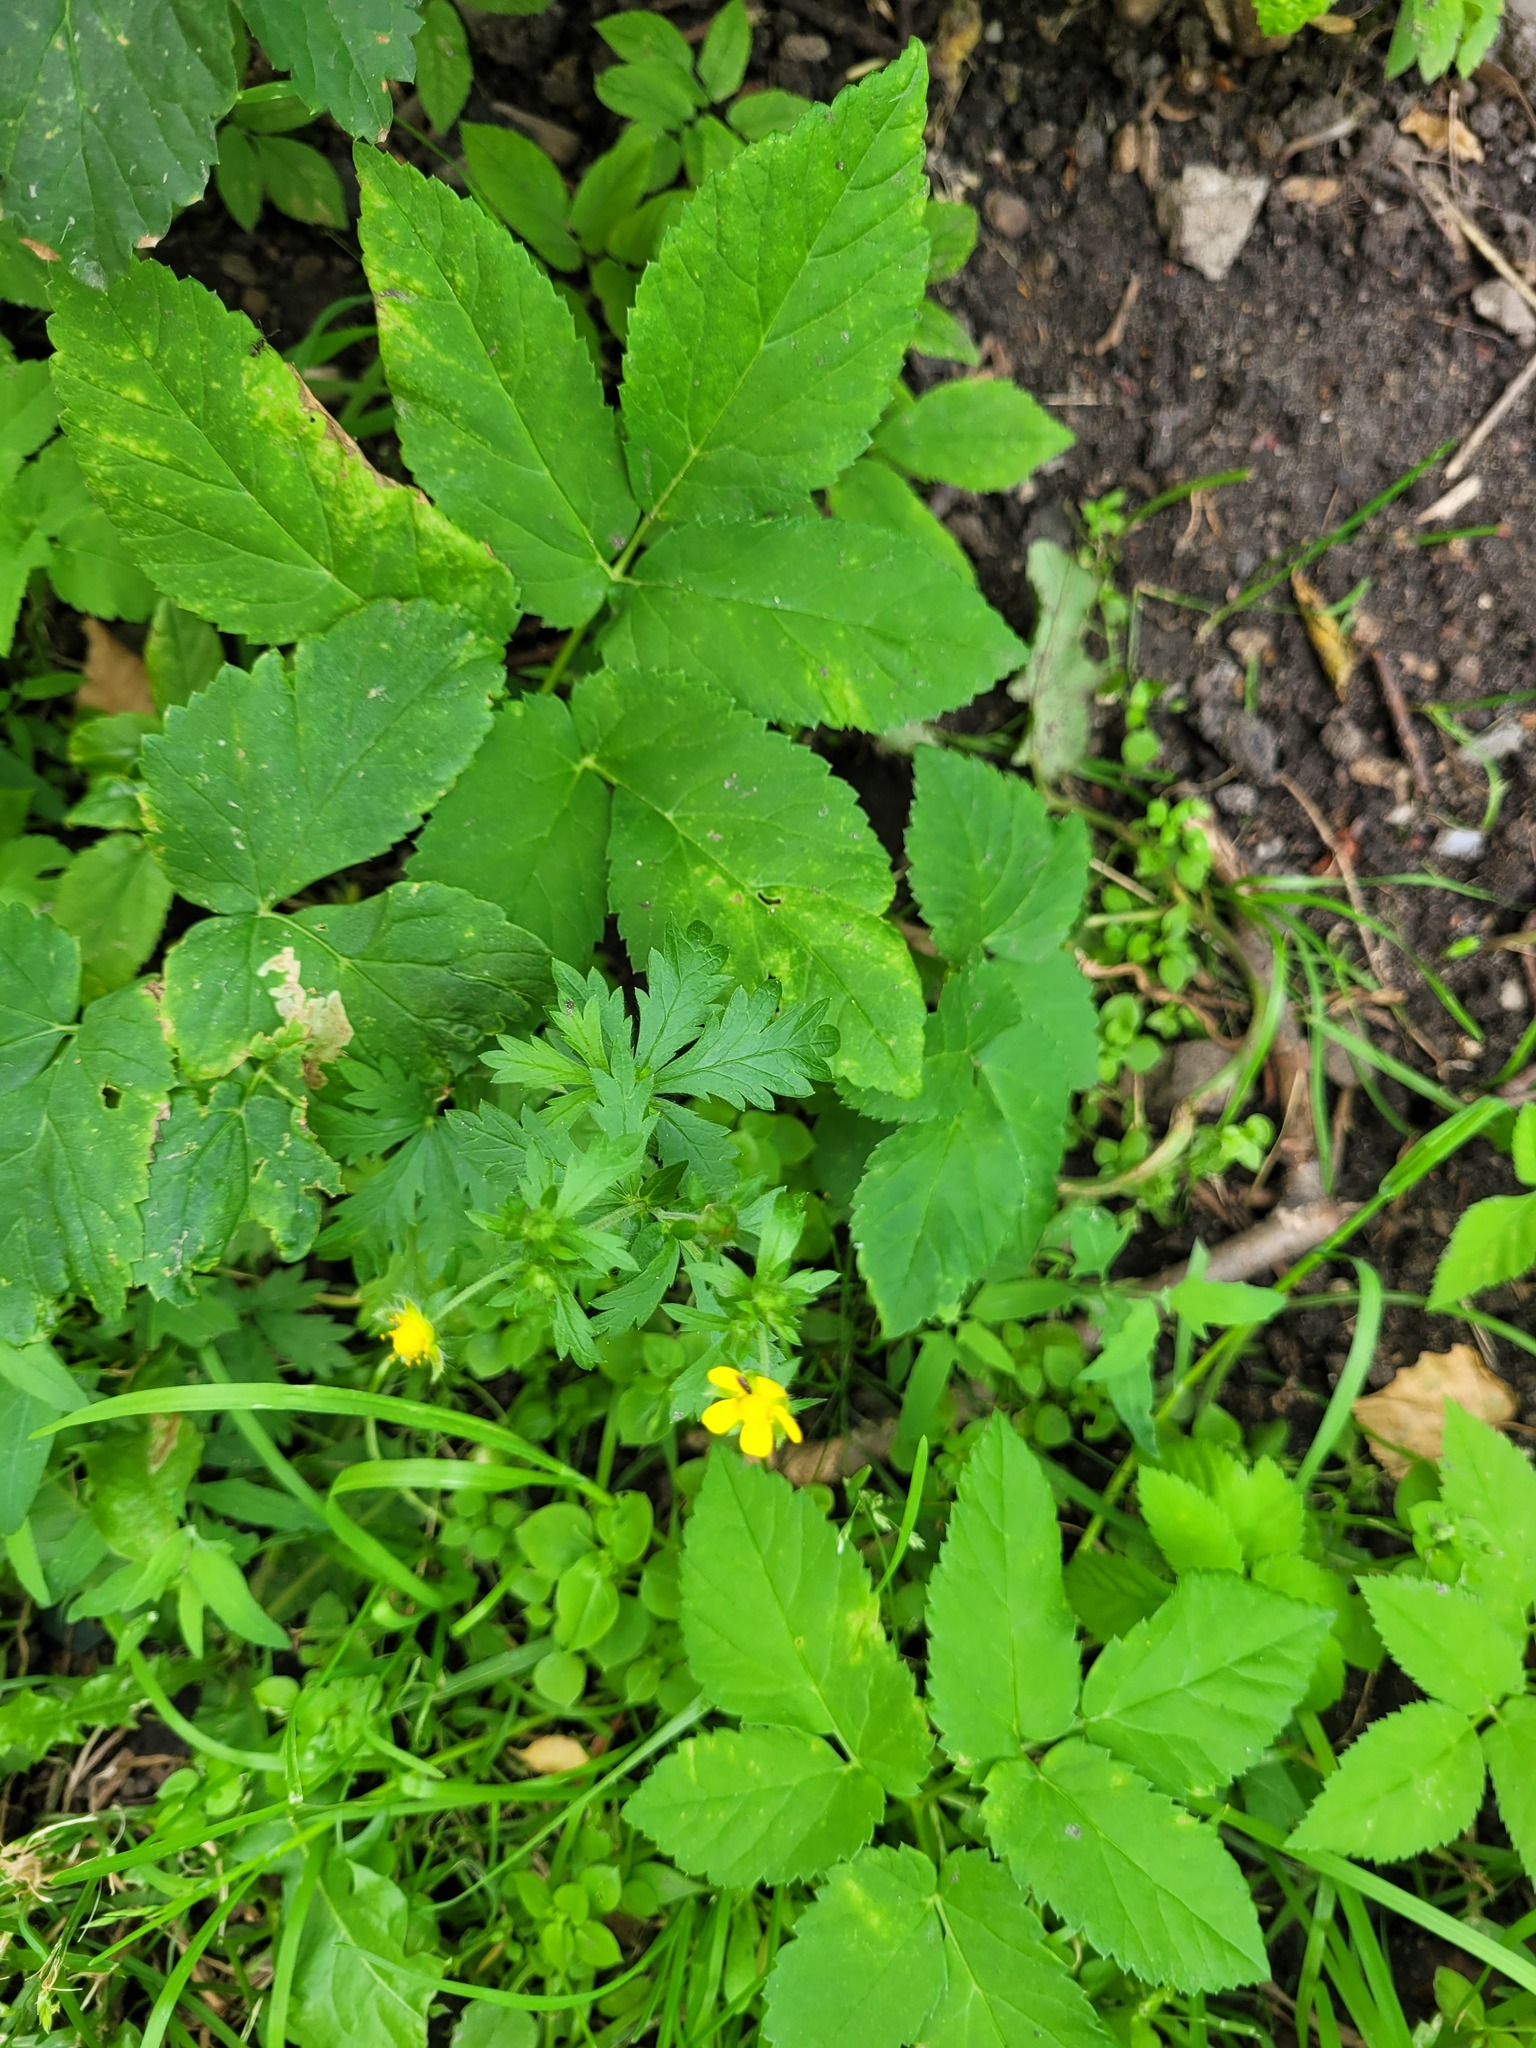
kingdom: Plantae
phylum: Tracheophyta
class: Magnoliopsida
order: Rosales
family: Rosaceae
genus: Potentilla
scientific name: Potentilla intermedia
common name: Downy cinquefoil
